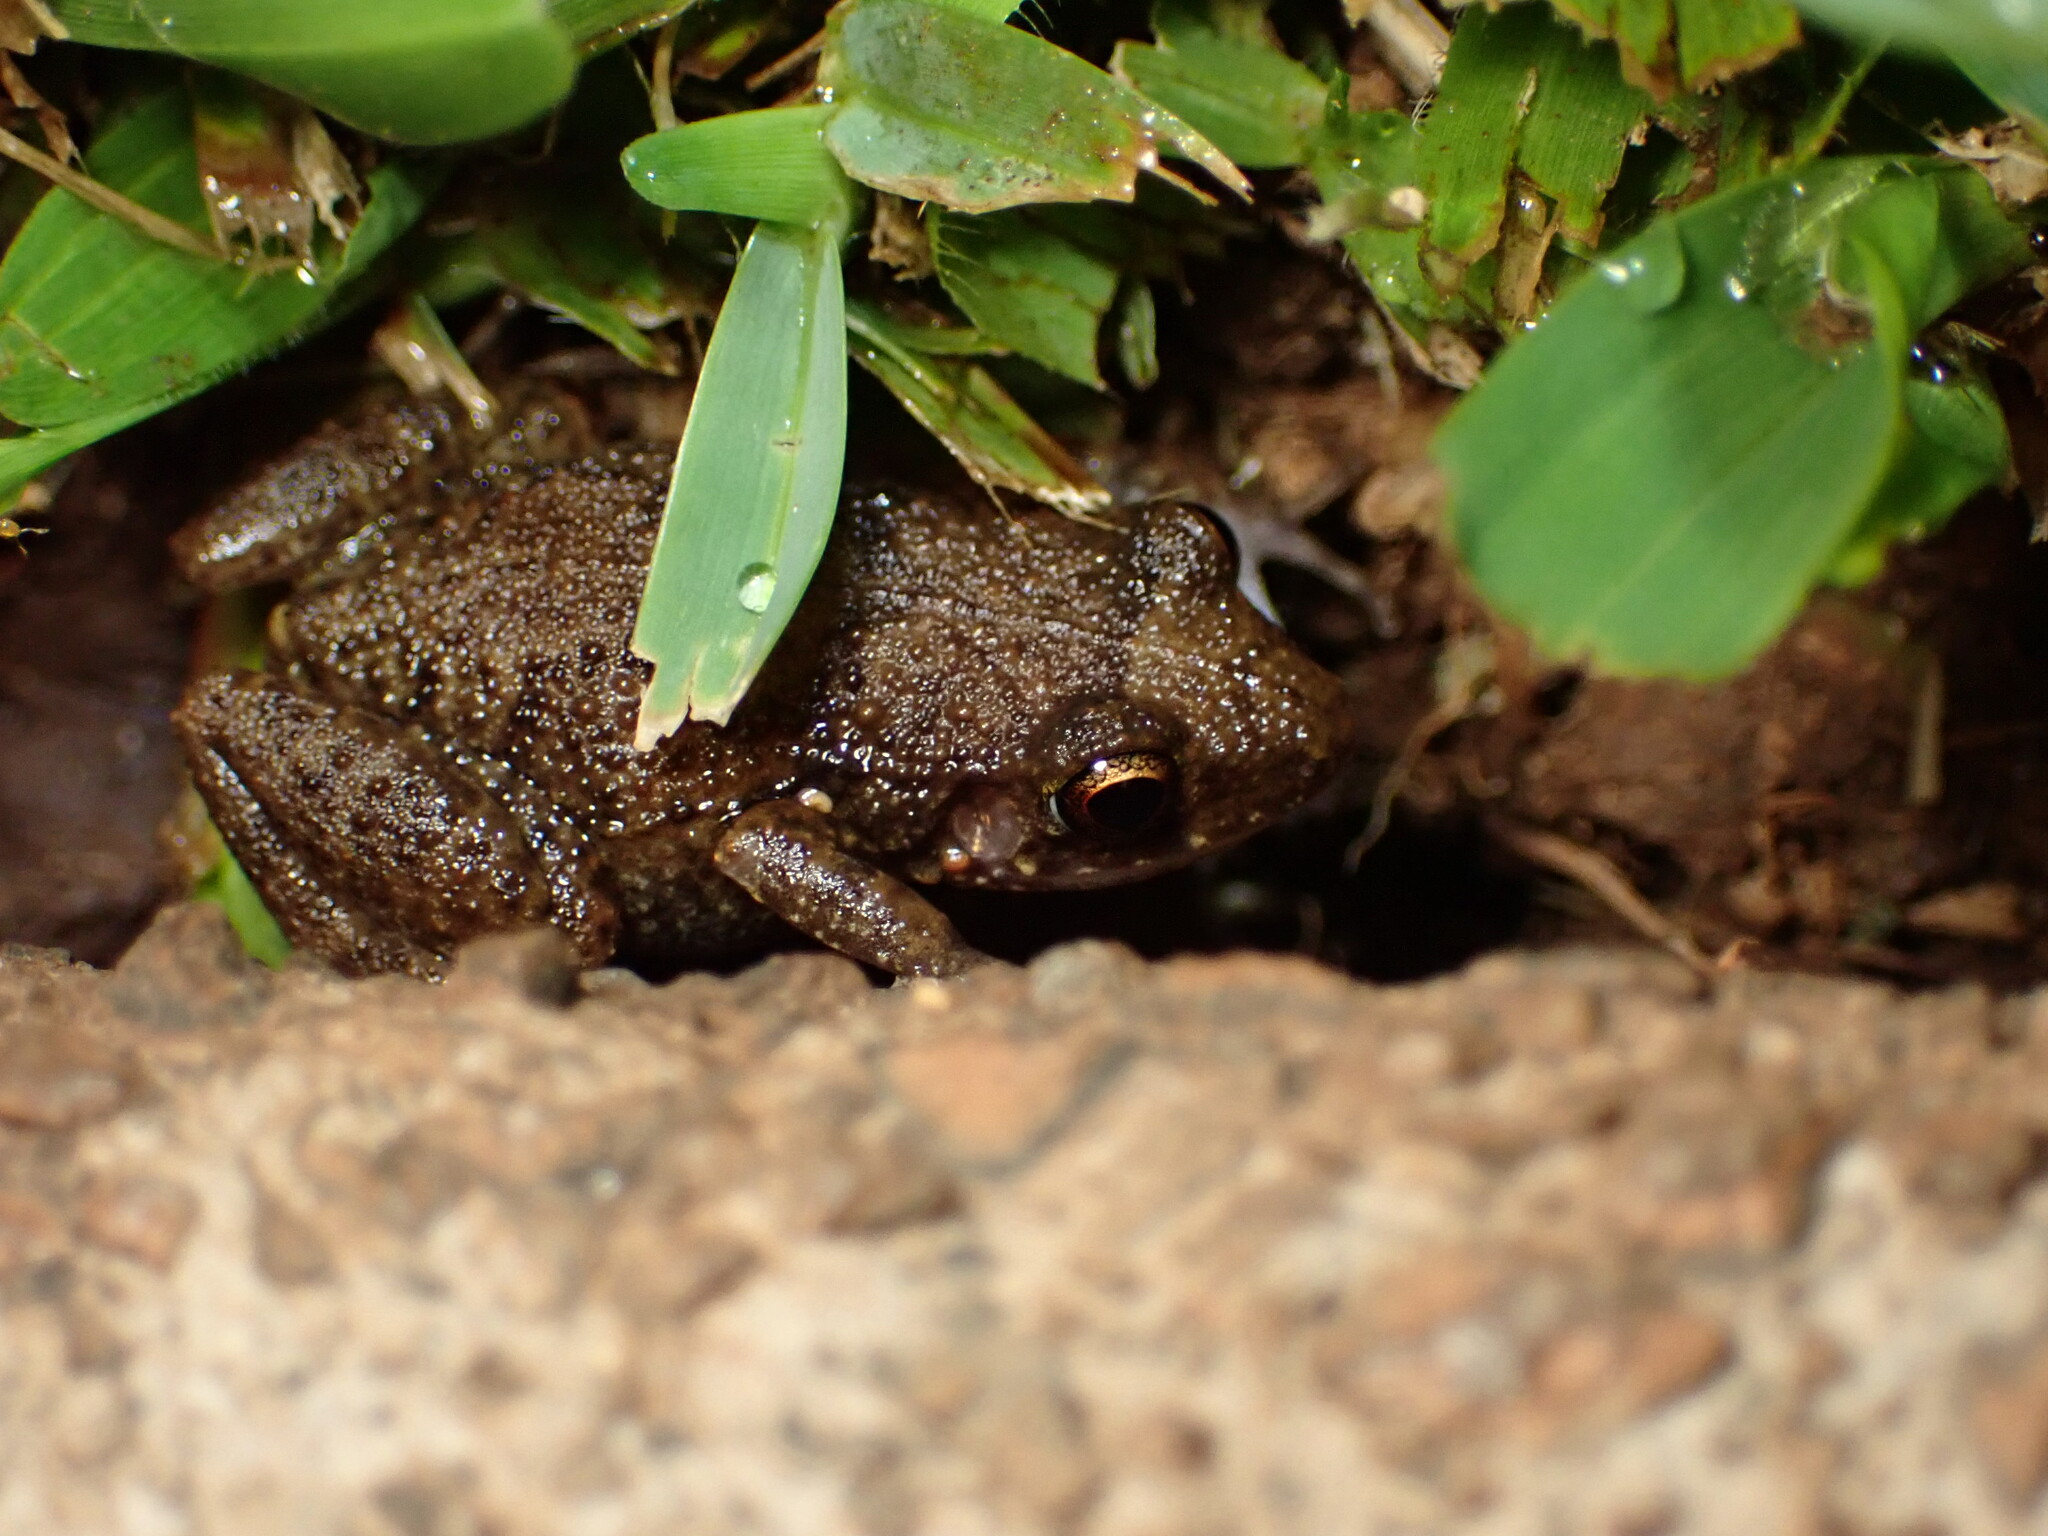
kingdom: Animalia
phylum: Chordata
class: Amphibia
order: Anura
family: Eleutherodactylidae
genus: Eleutherodactylus
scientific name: Eleutherodactylus planirostris
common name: Greenhouse frog
